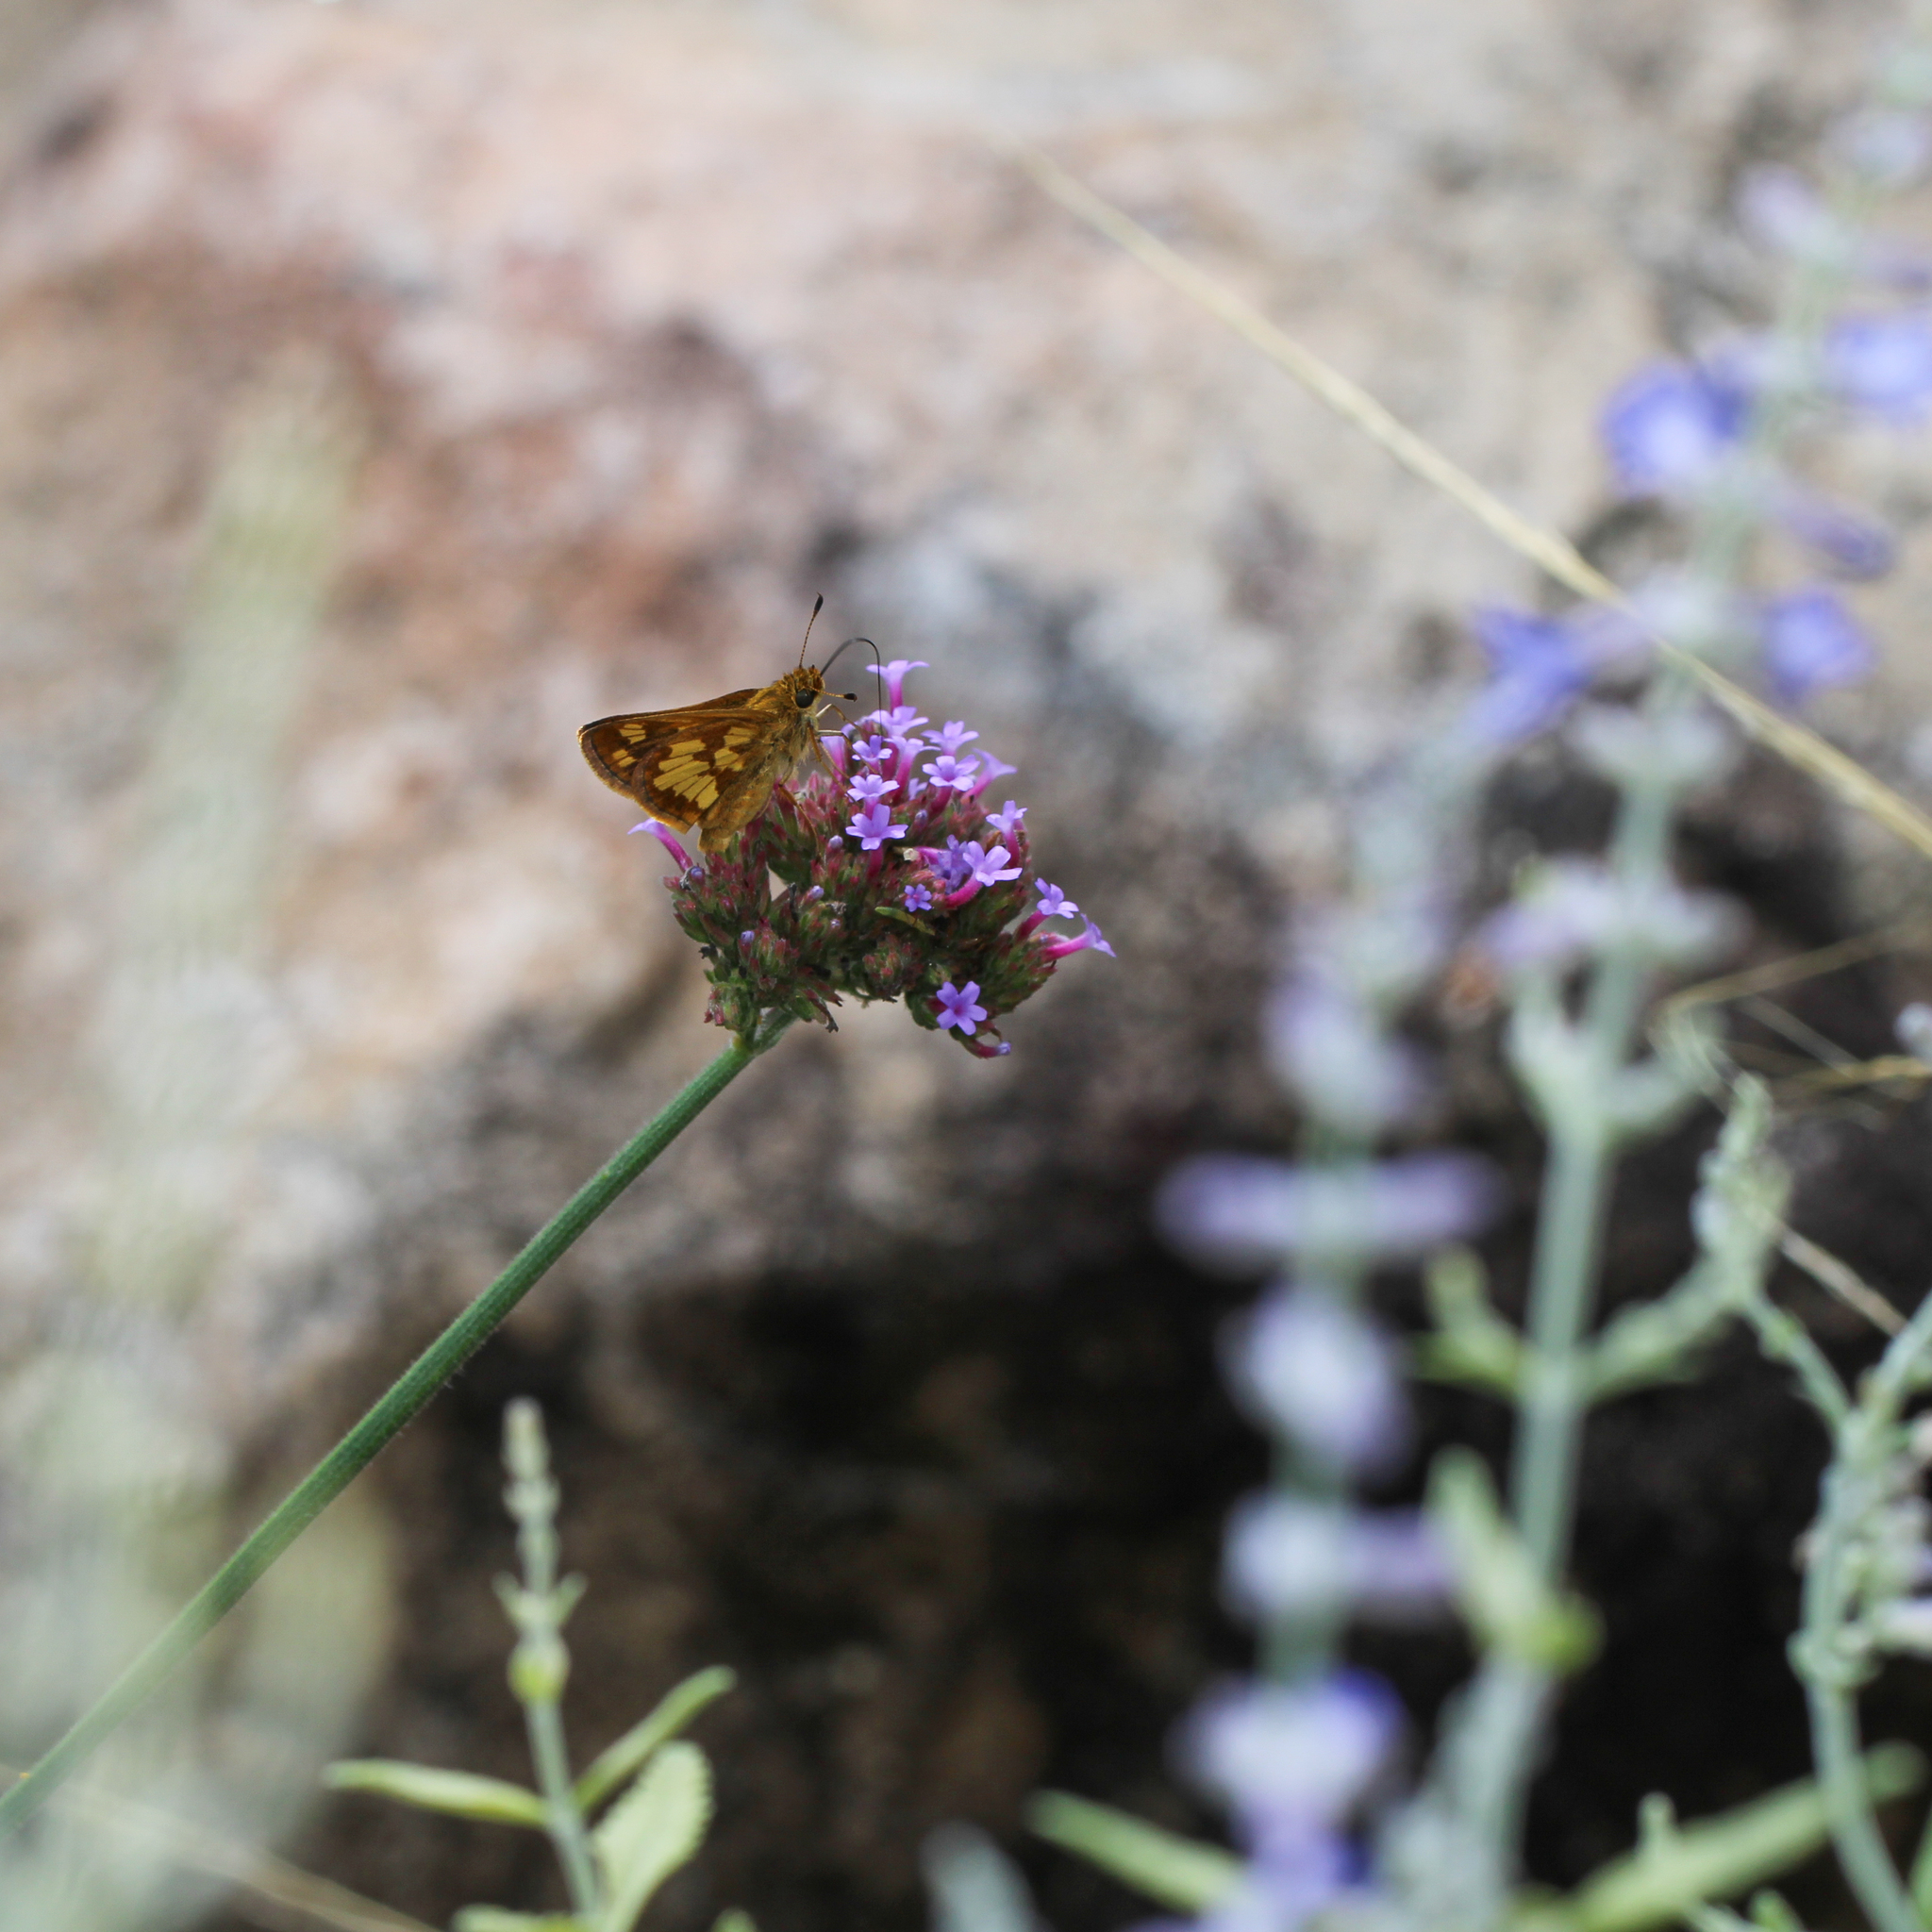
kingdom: Animalia
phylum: Arthropoda
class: Insecta
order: Lepidoptera
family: Hesperiidae
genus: Polites
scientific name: Polites coras
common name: Peck's skipper
